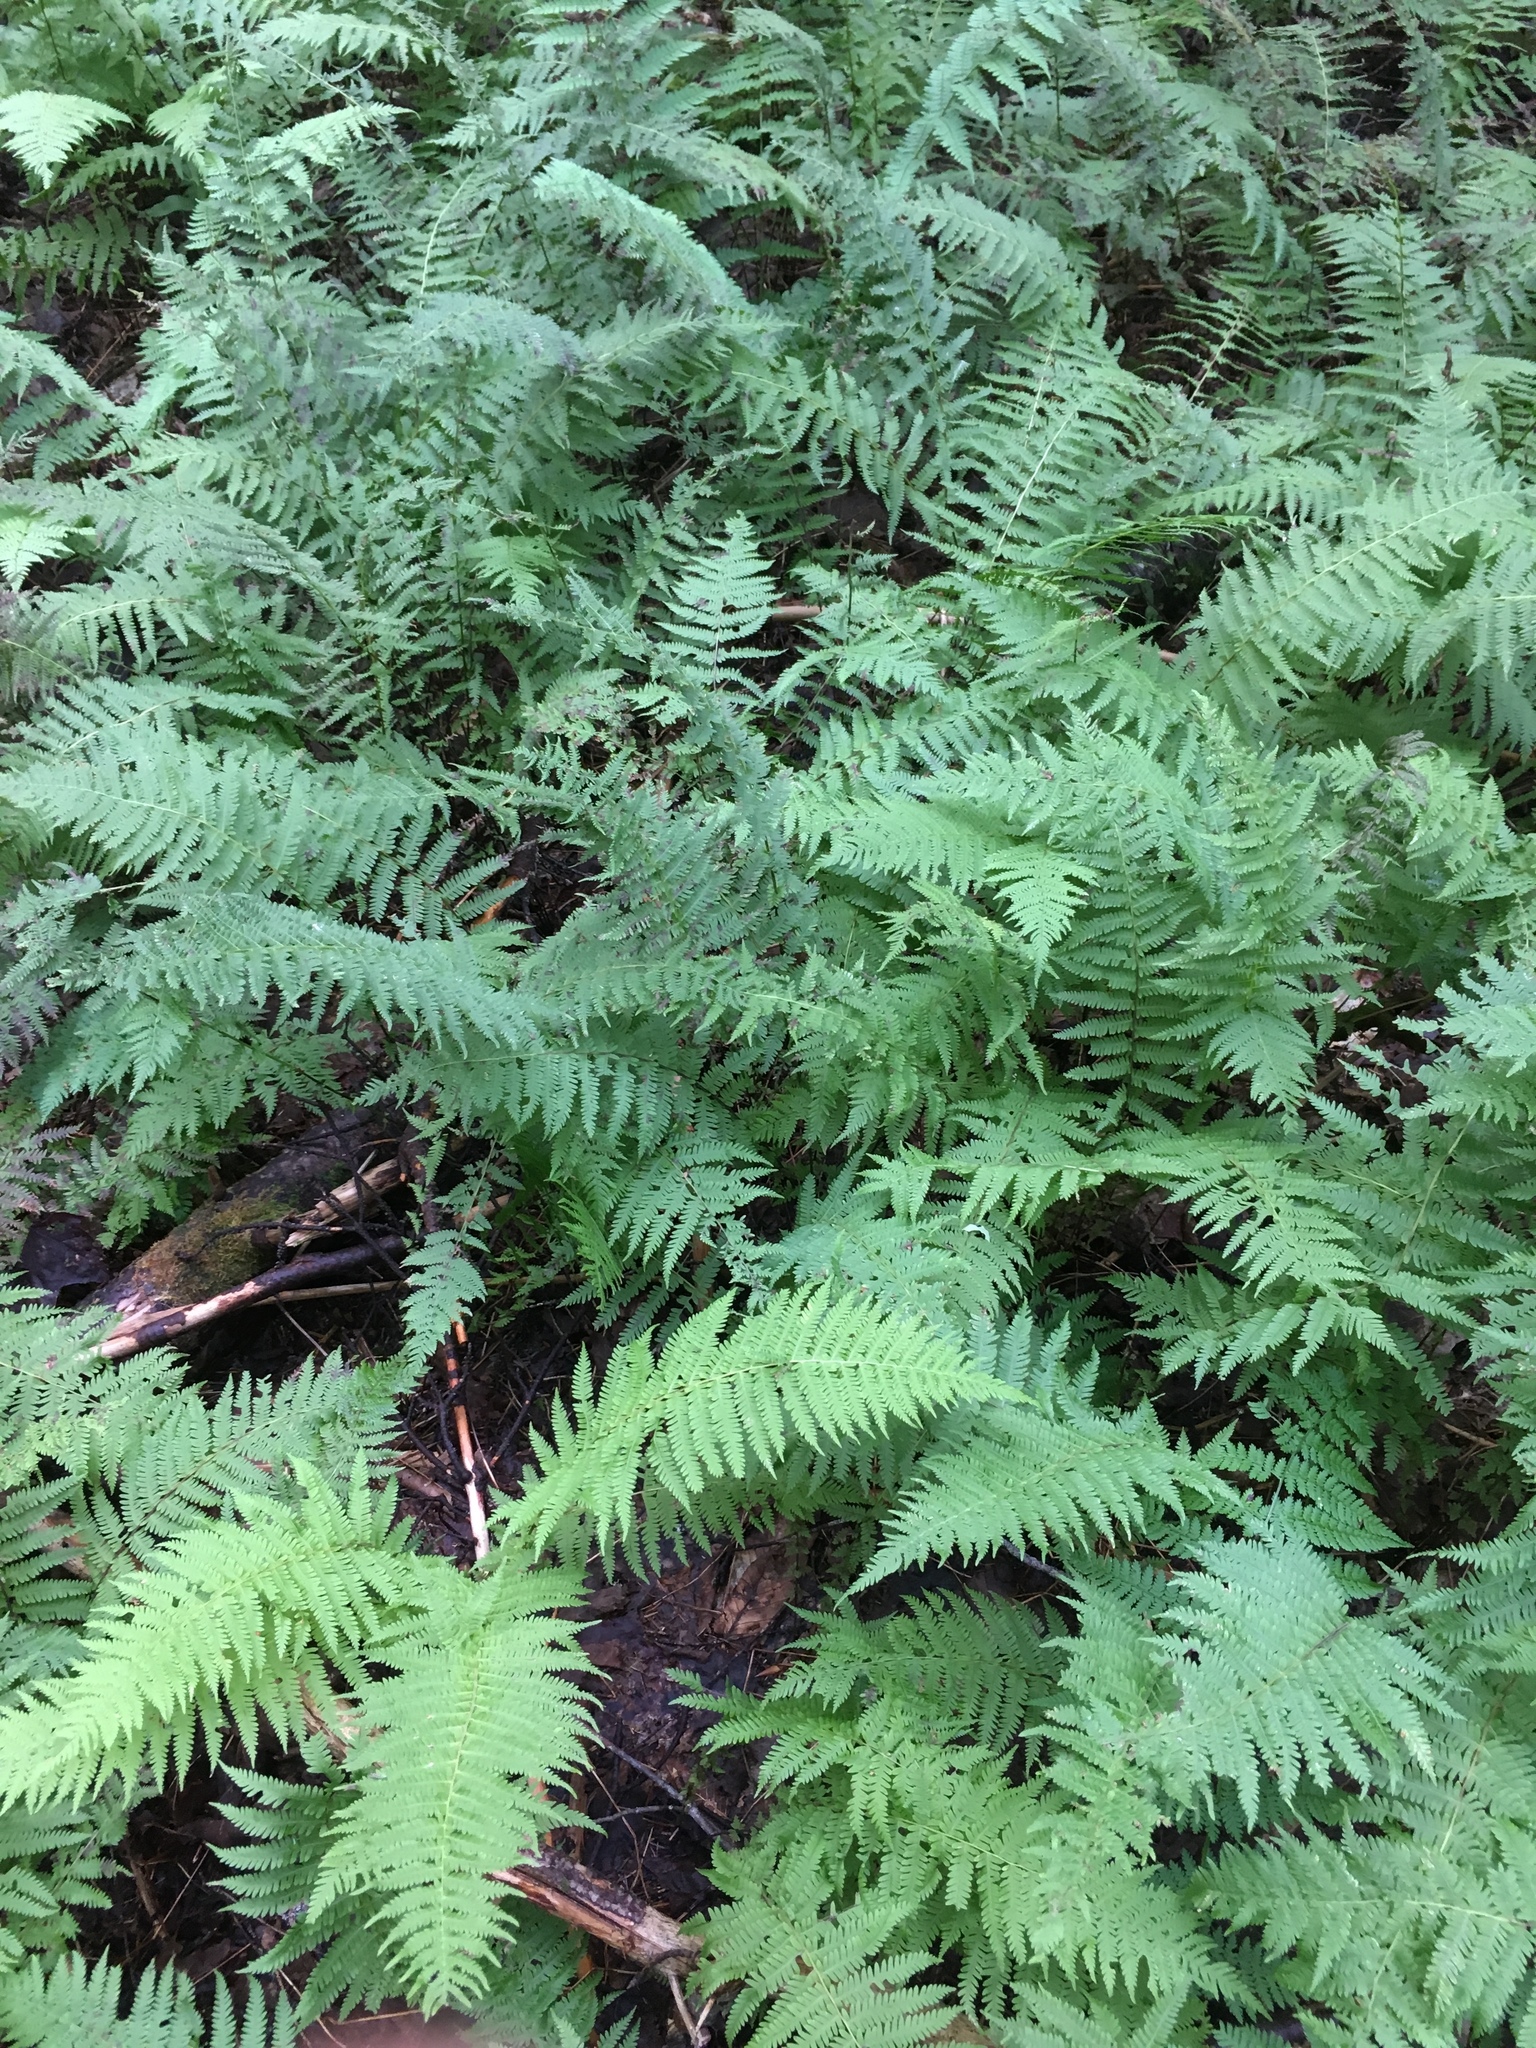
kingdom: Plantae
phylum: Tracheophyta
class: Polypodiopsida
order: Polypodiales
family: Thelypteridaceae
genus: Amauropelta
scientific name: Amauropelta noveboracensis
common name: New york fern
